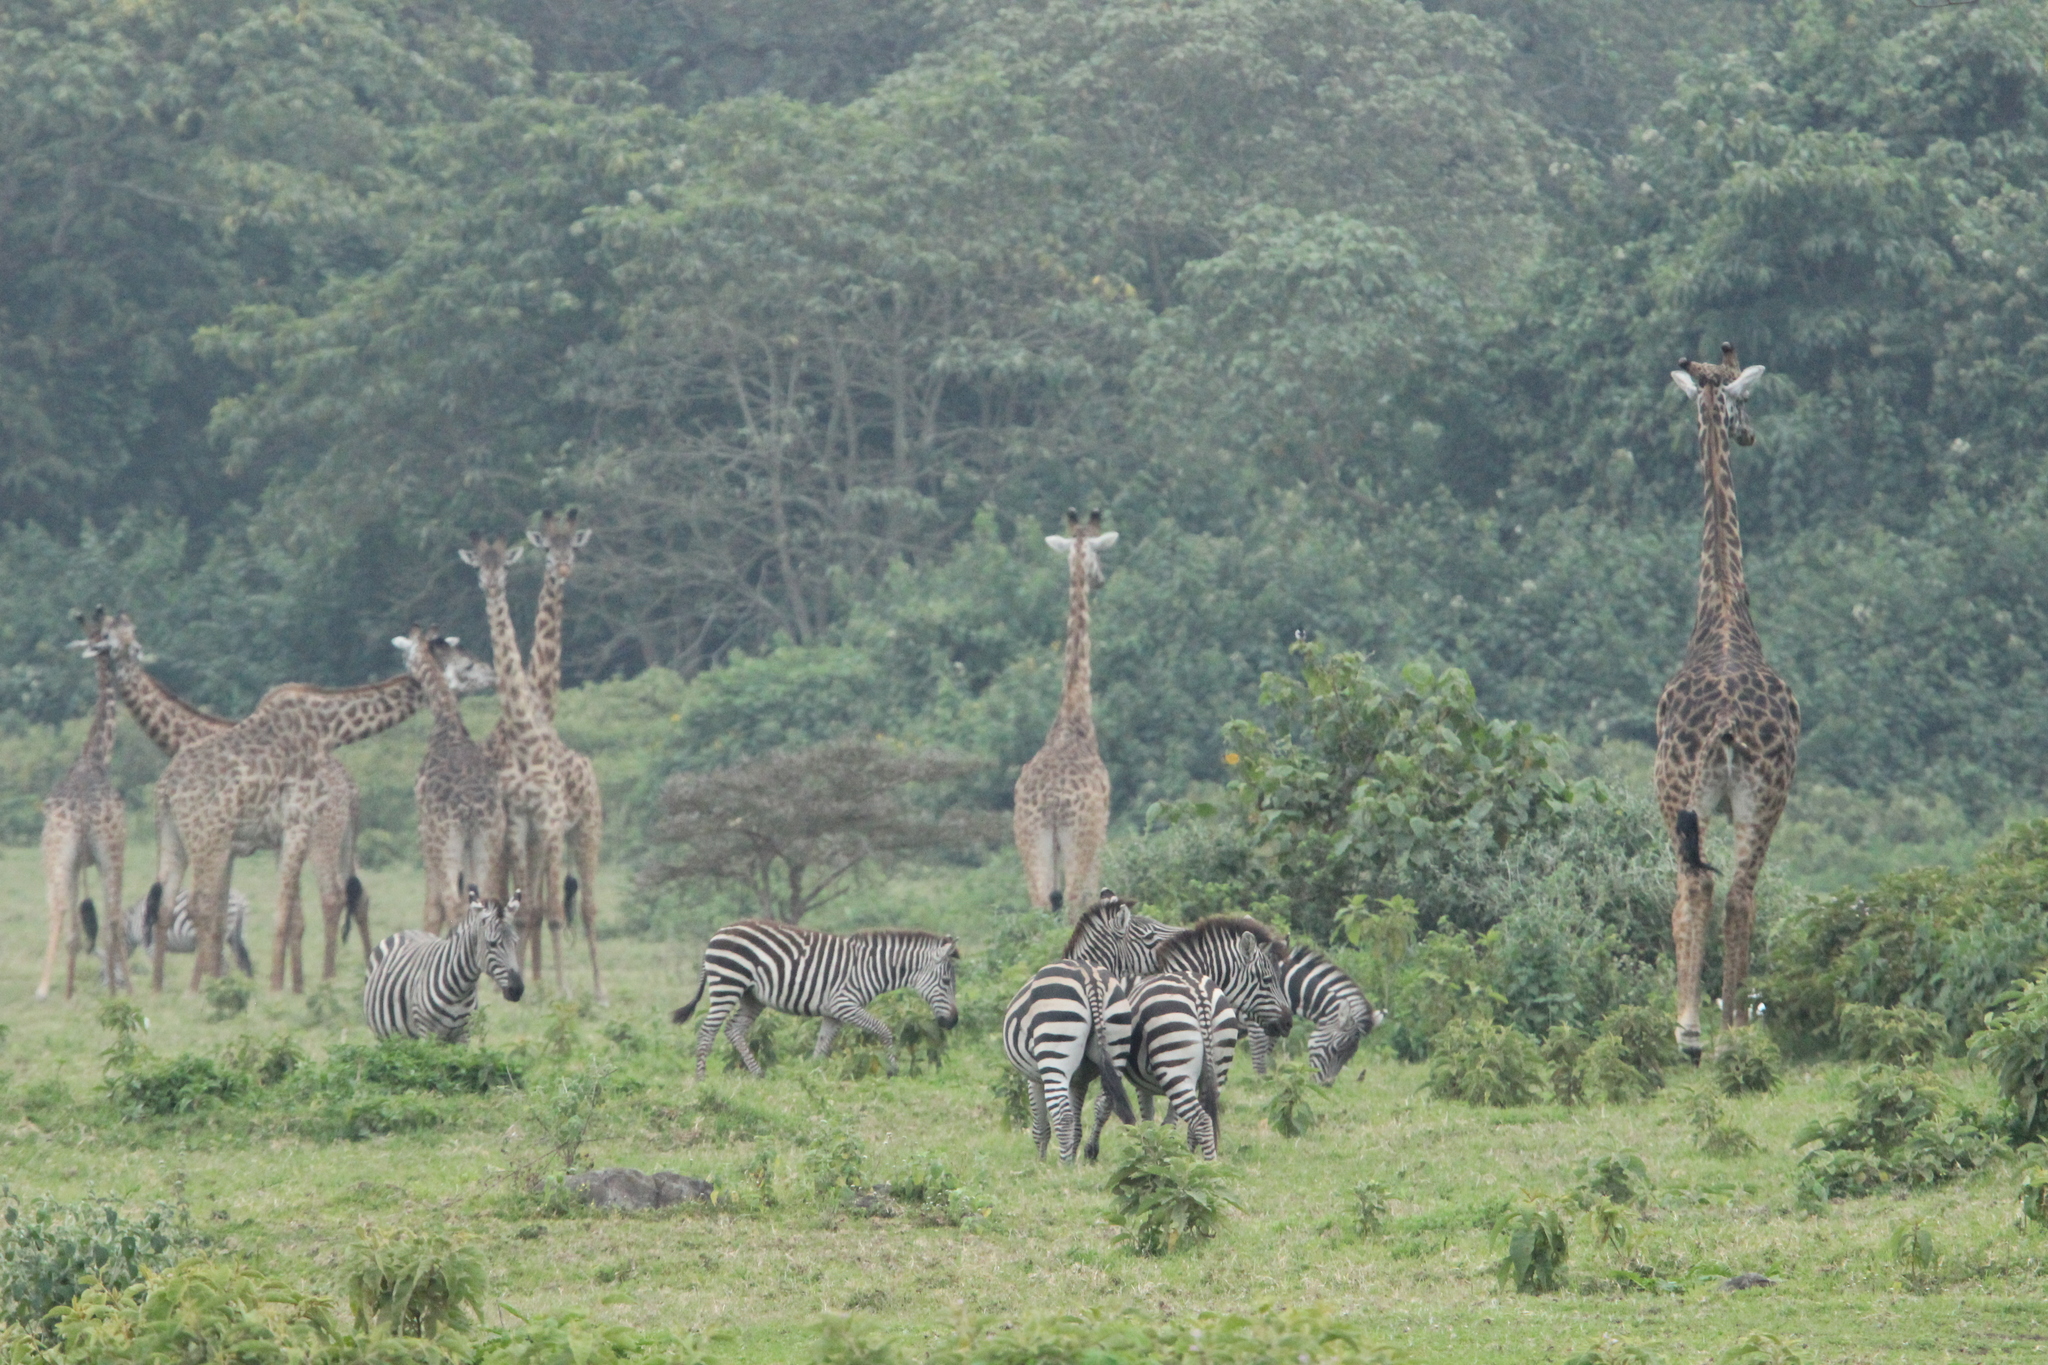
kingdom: Animalia
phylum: Chordata
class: Mammalia
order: Artiodactyla
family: Giraffidae
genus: Giraffa
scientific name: Giraffa tippelskirchi
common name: Masai giraffe
